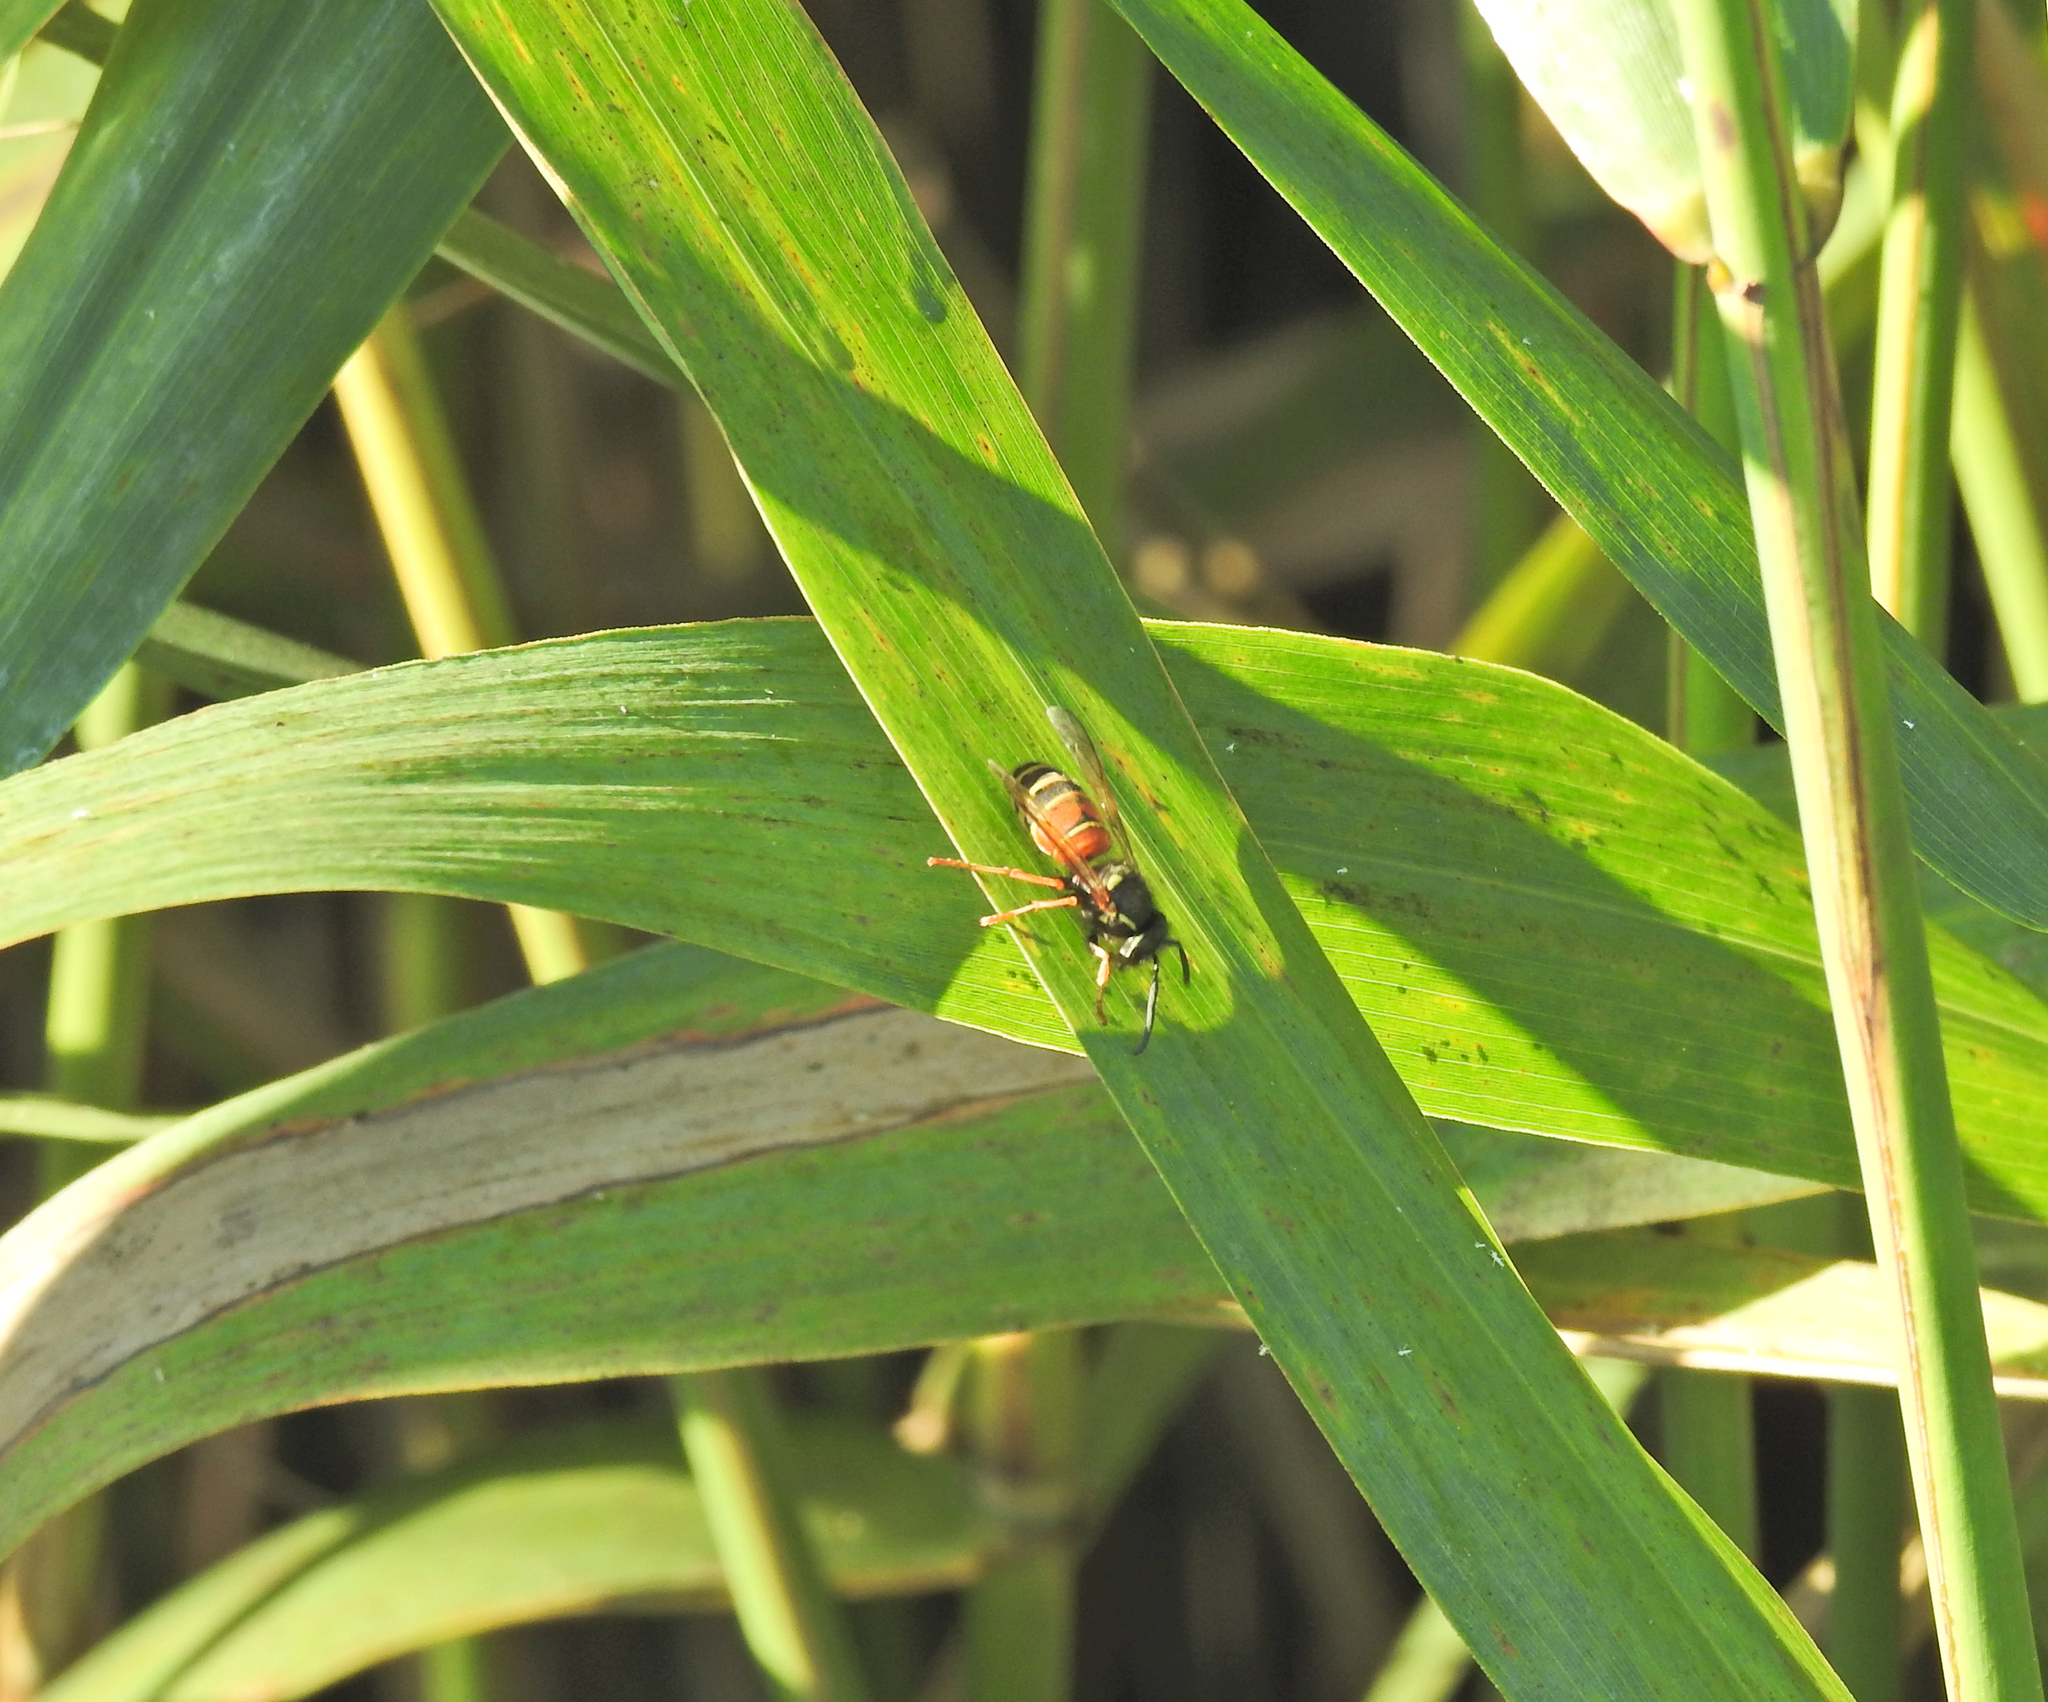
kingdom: Animalia
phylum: Arthropoda
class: Insecta
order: Hymenoptera
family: Vespidae
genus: Vespula
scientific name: Vespula rufa
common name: Red wasp
